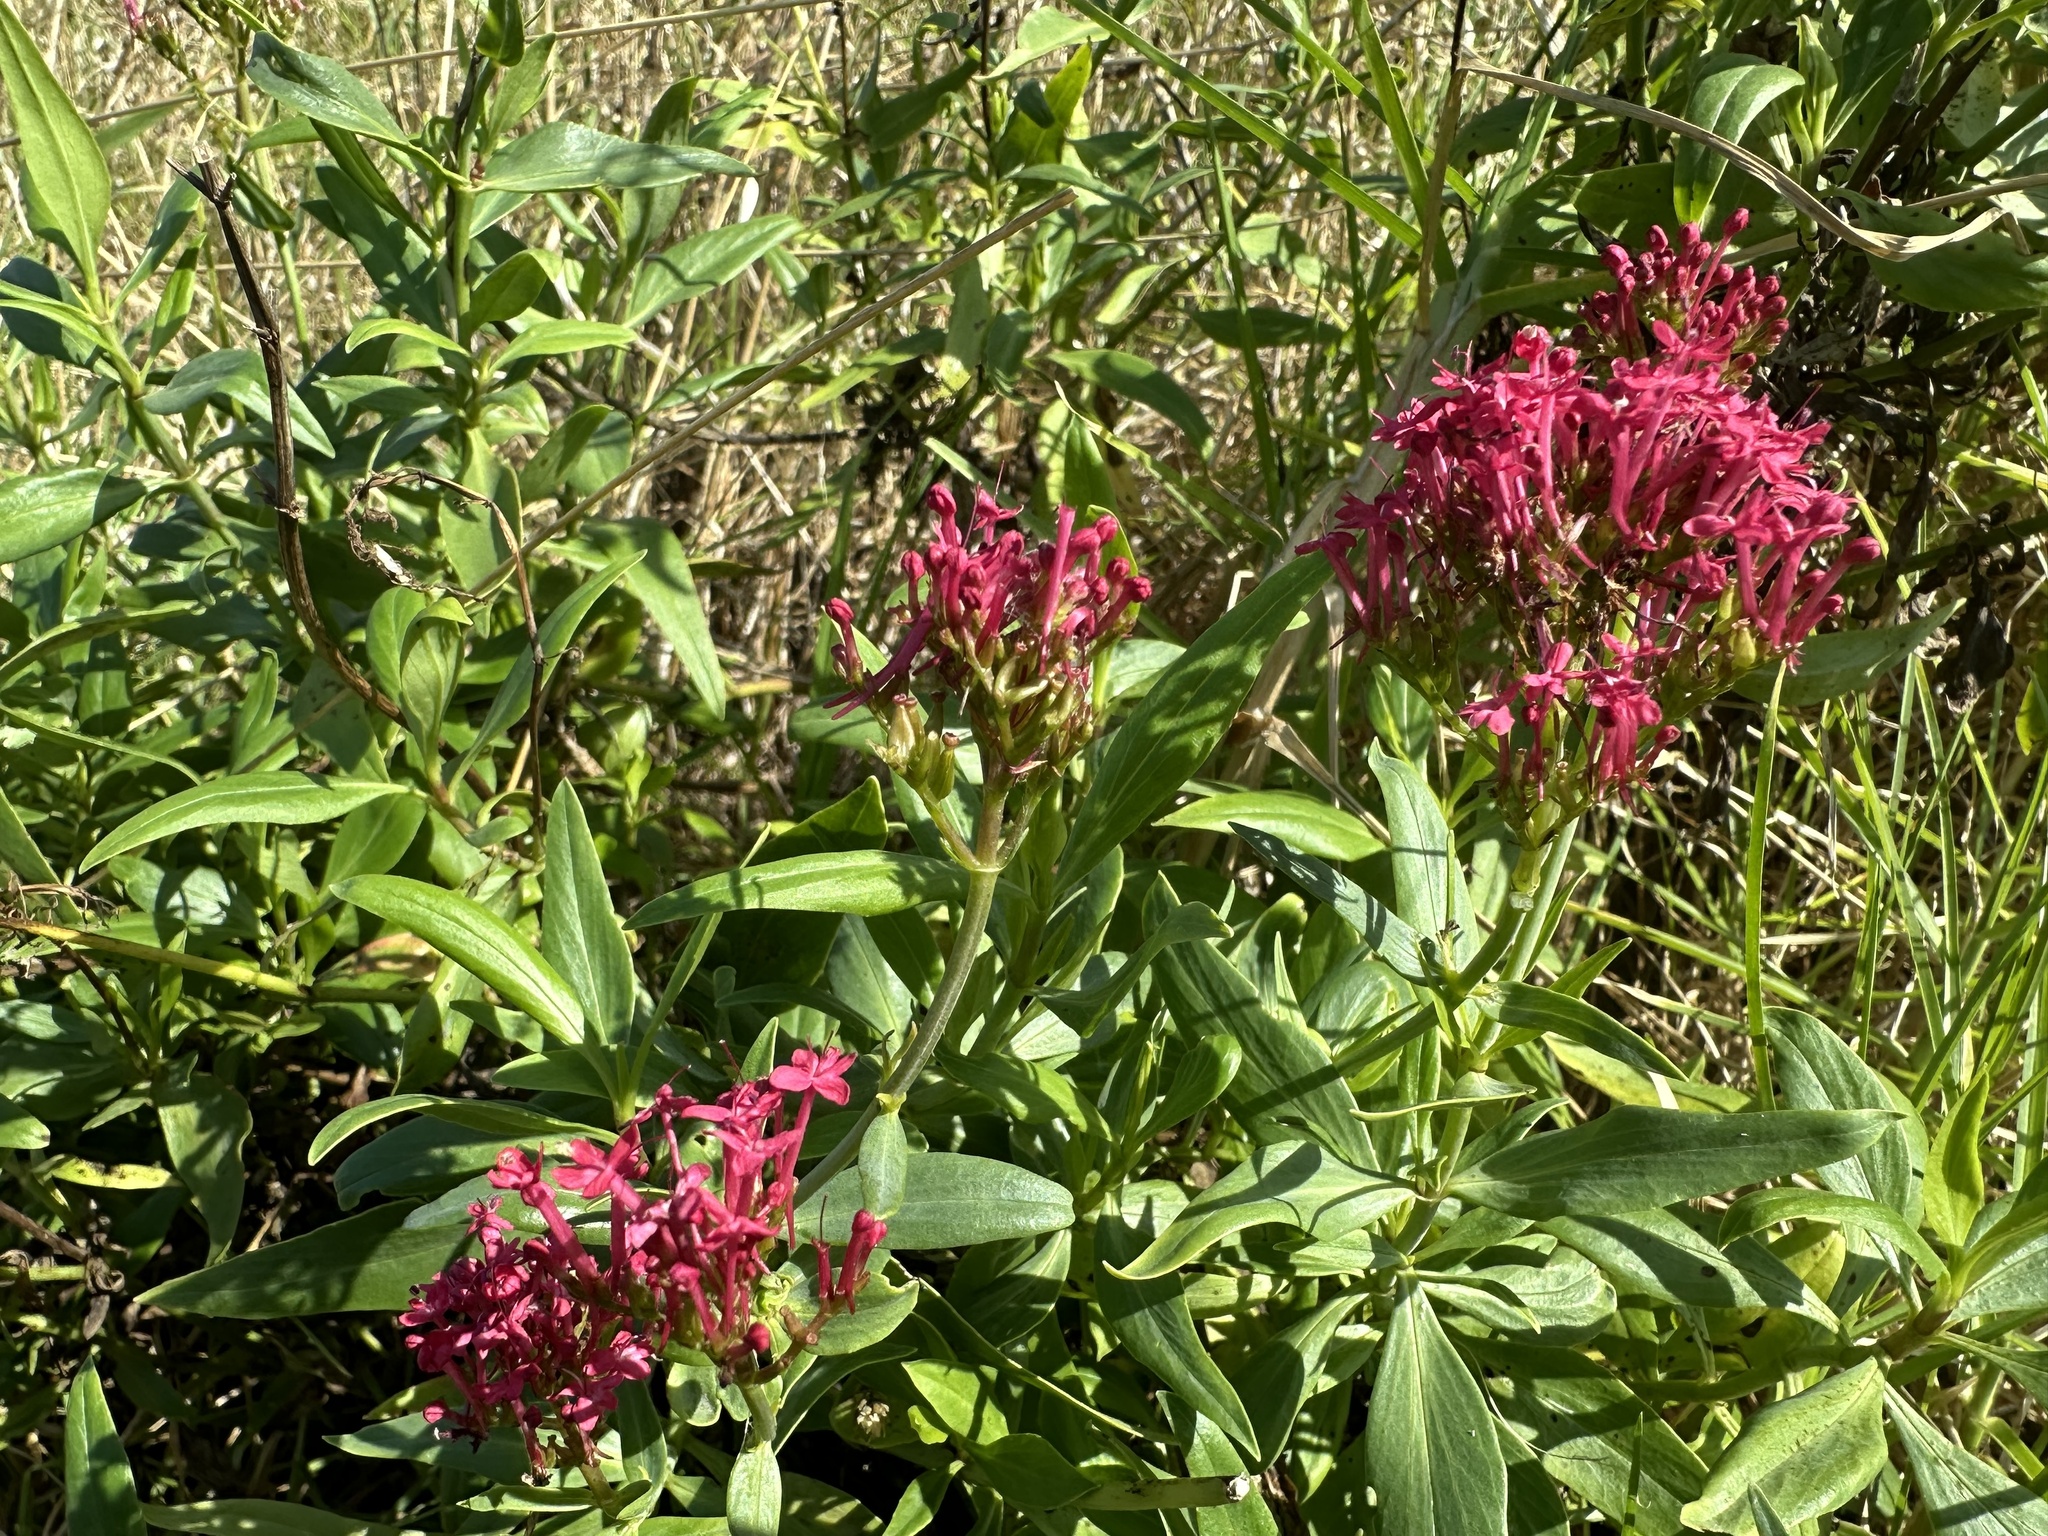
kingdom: Plantae
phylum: Tracheophyta
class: Magnoliopsida
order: Dipsacales
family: Caprifoliaceae
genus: Centranthus
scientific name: Centranthus ruber
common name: Red valerian
